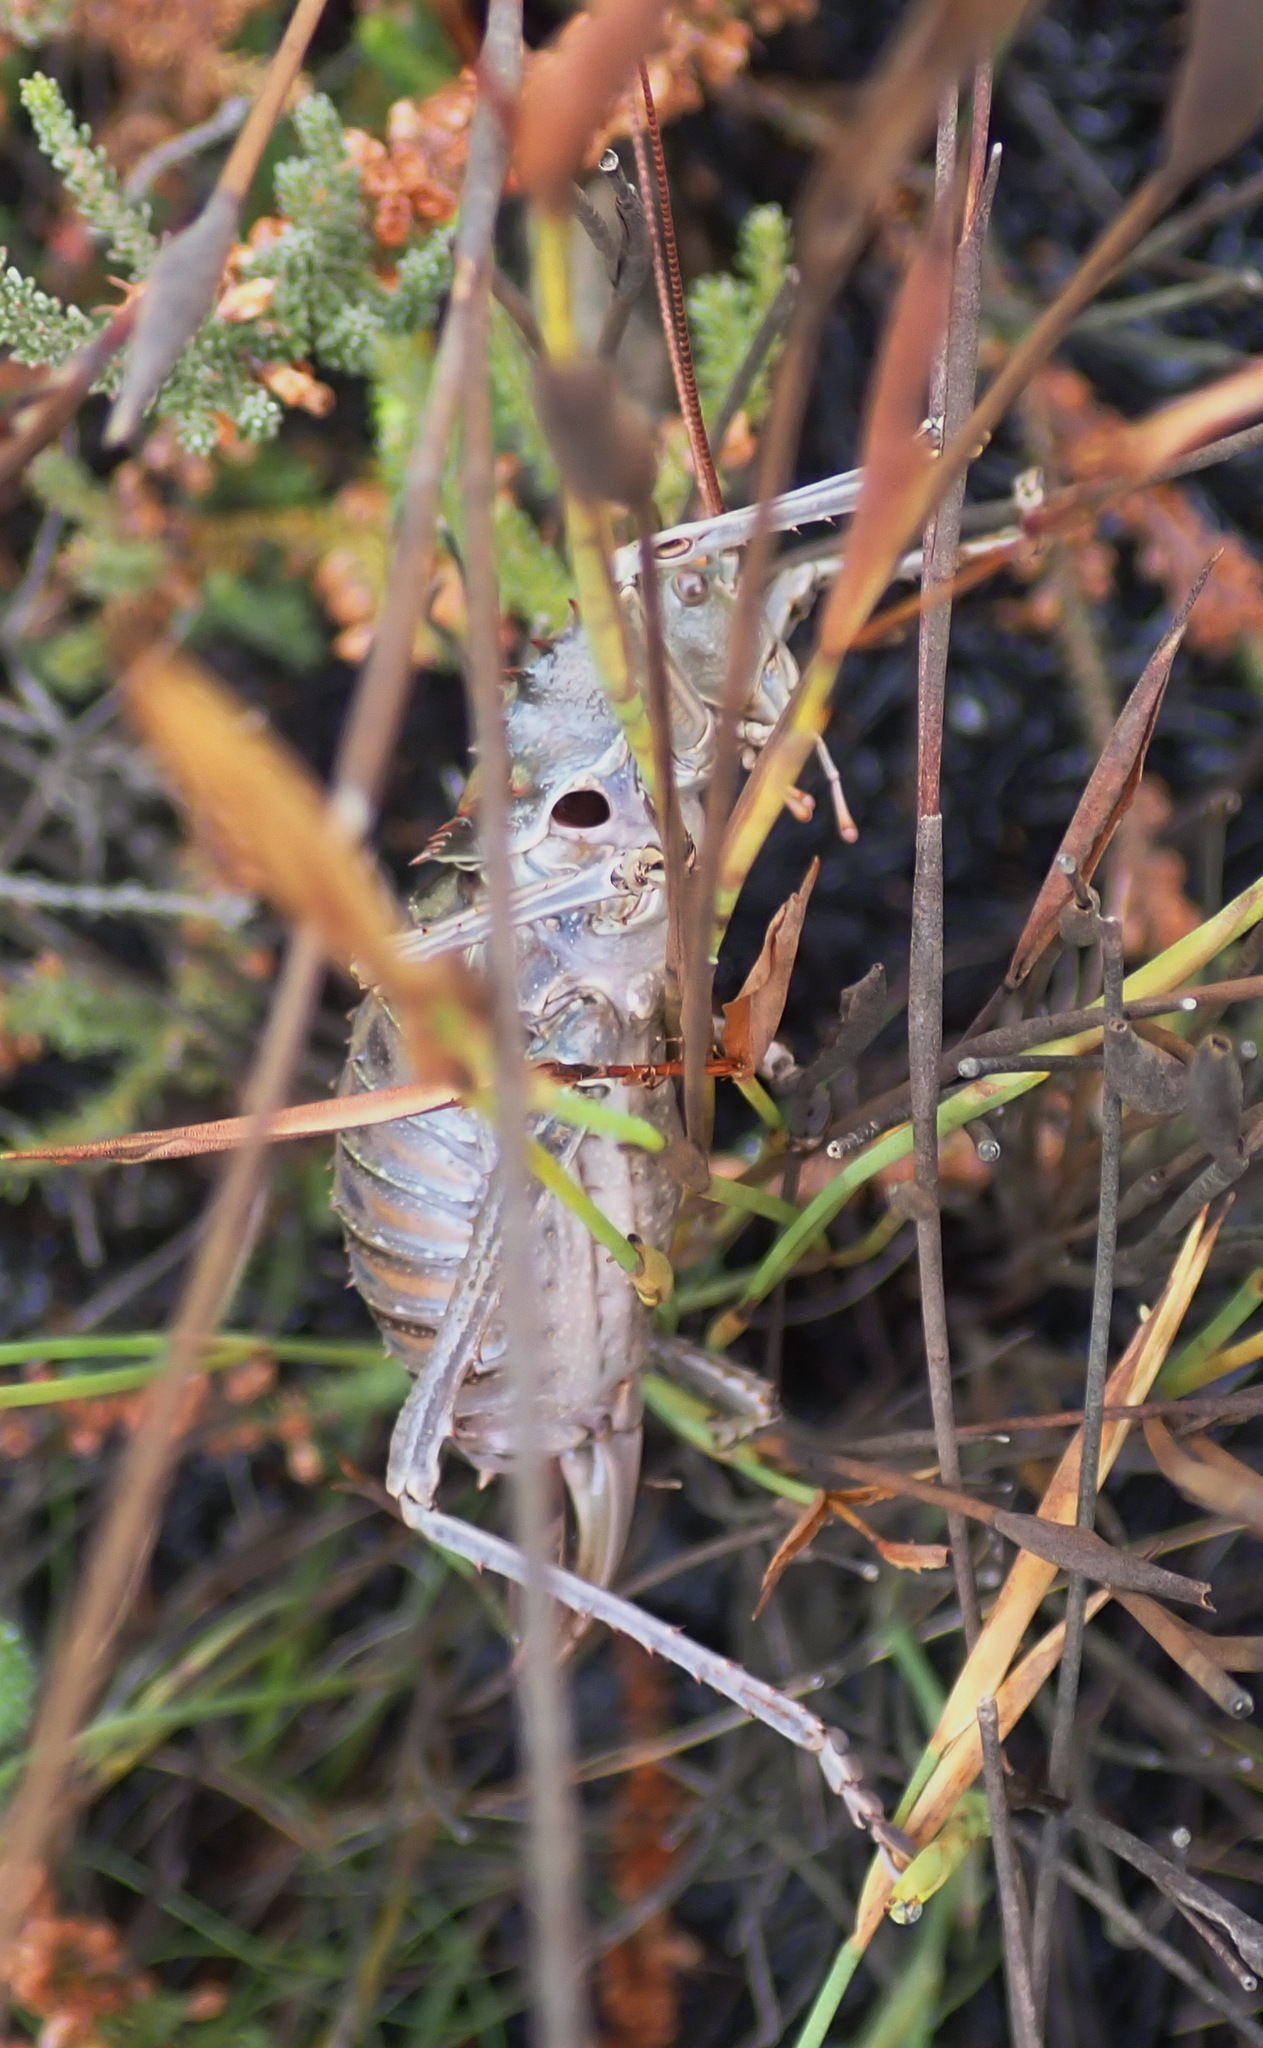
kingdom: Animalia
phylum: Arthropoda
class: Insecta
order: Orthoptera
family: Tettigoniidae
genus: Hetrodes
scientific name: Hetrodes pupus
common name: Koringkriek
